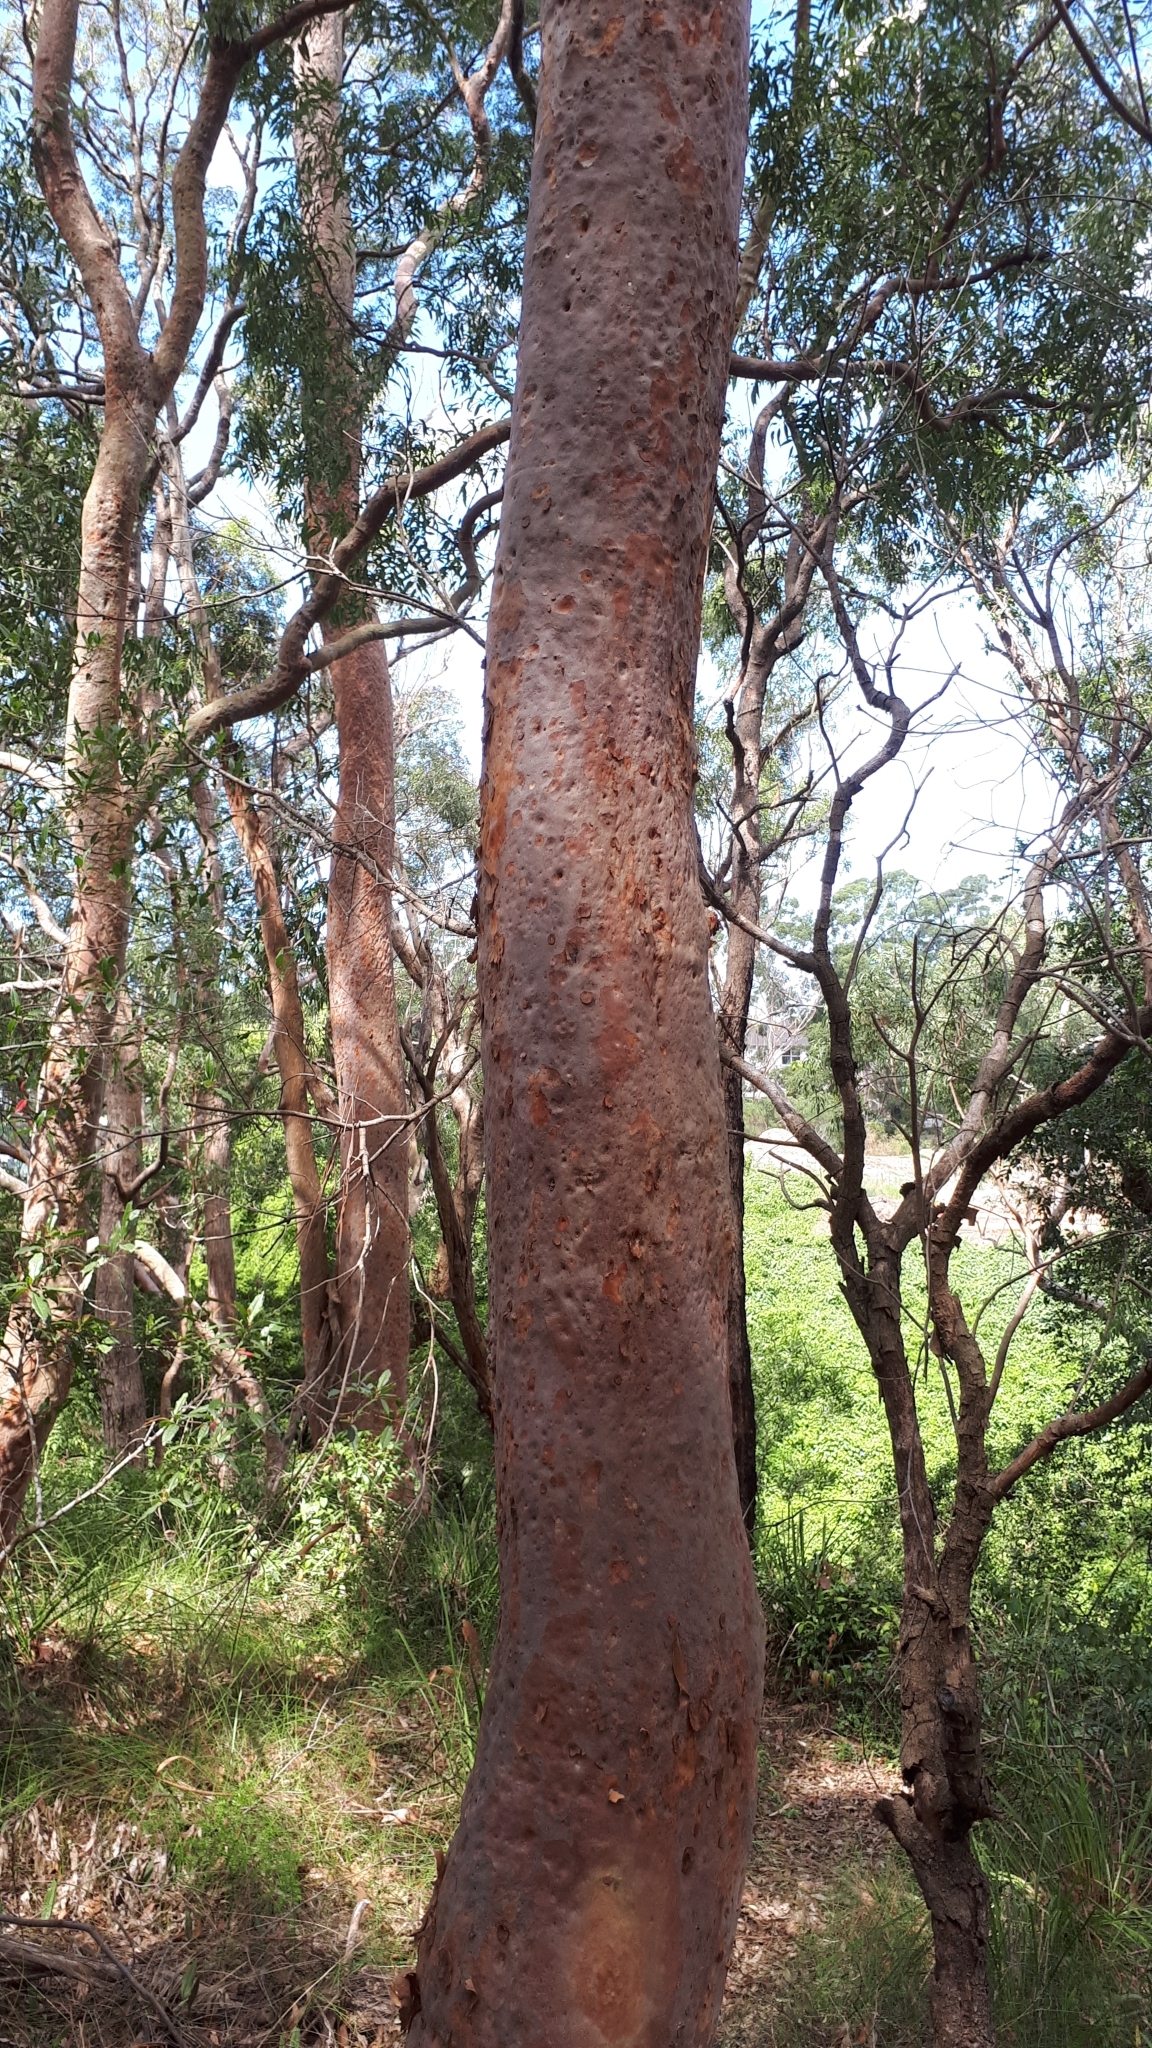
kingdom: Plantae
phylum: Tracheophyta
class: Magnoliopsida
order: Myrtales
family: Myrtaceae
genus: Angophora
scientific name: Angophora costata
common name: Gum myrtle
